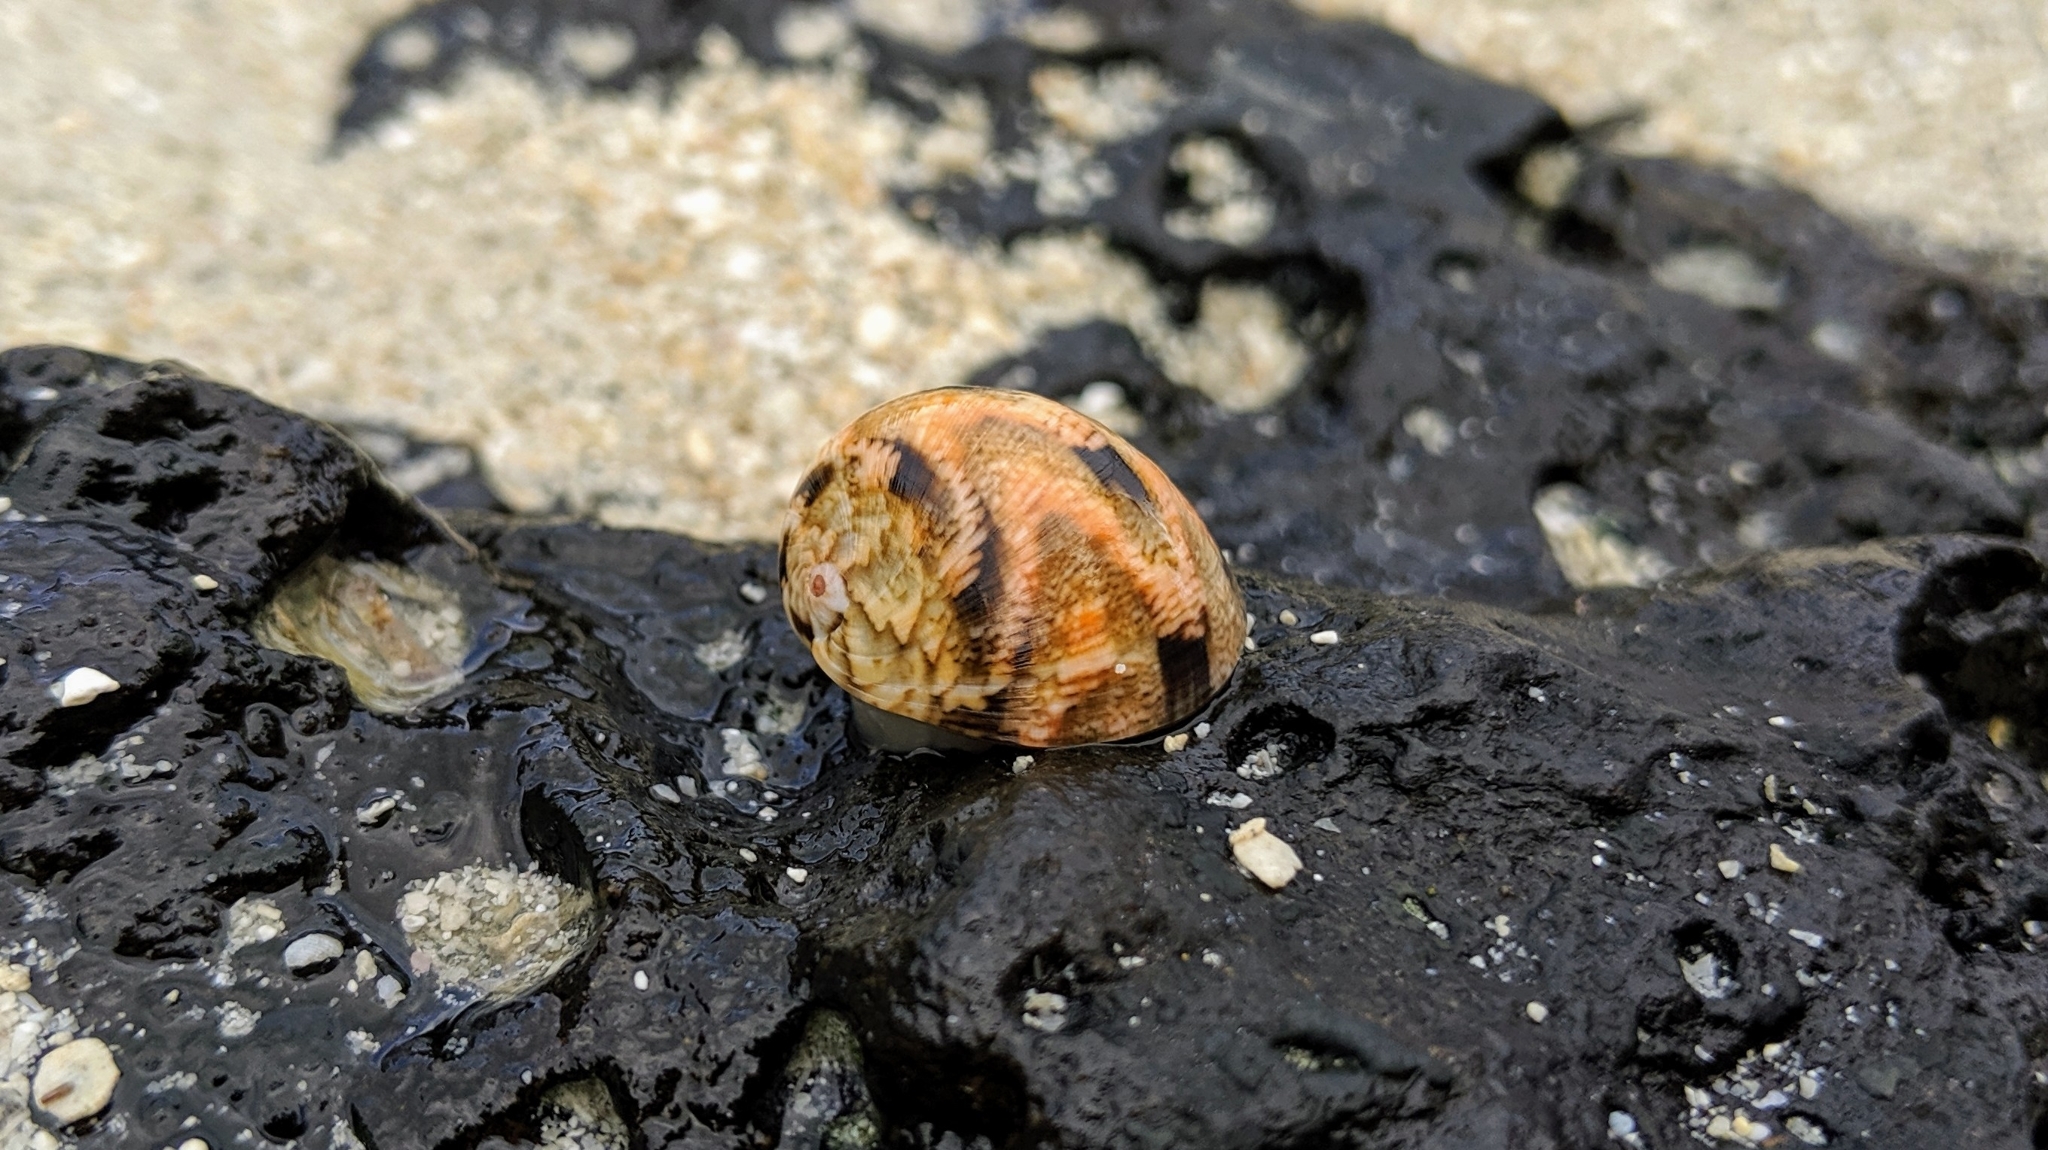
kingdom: Animalia
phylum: Mollusca
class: Gastropoda
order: Cycloneritida
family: Neritidae
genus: Nerita
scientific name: Nerita polita
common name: Polished nerite
